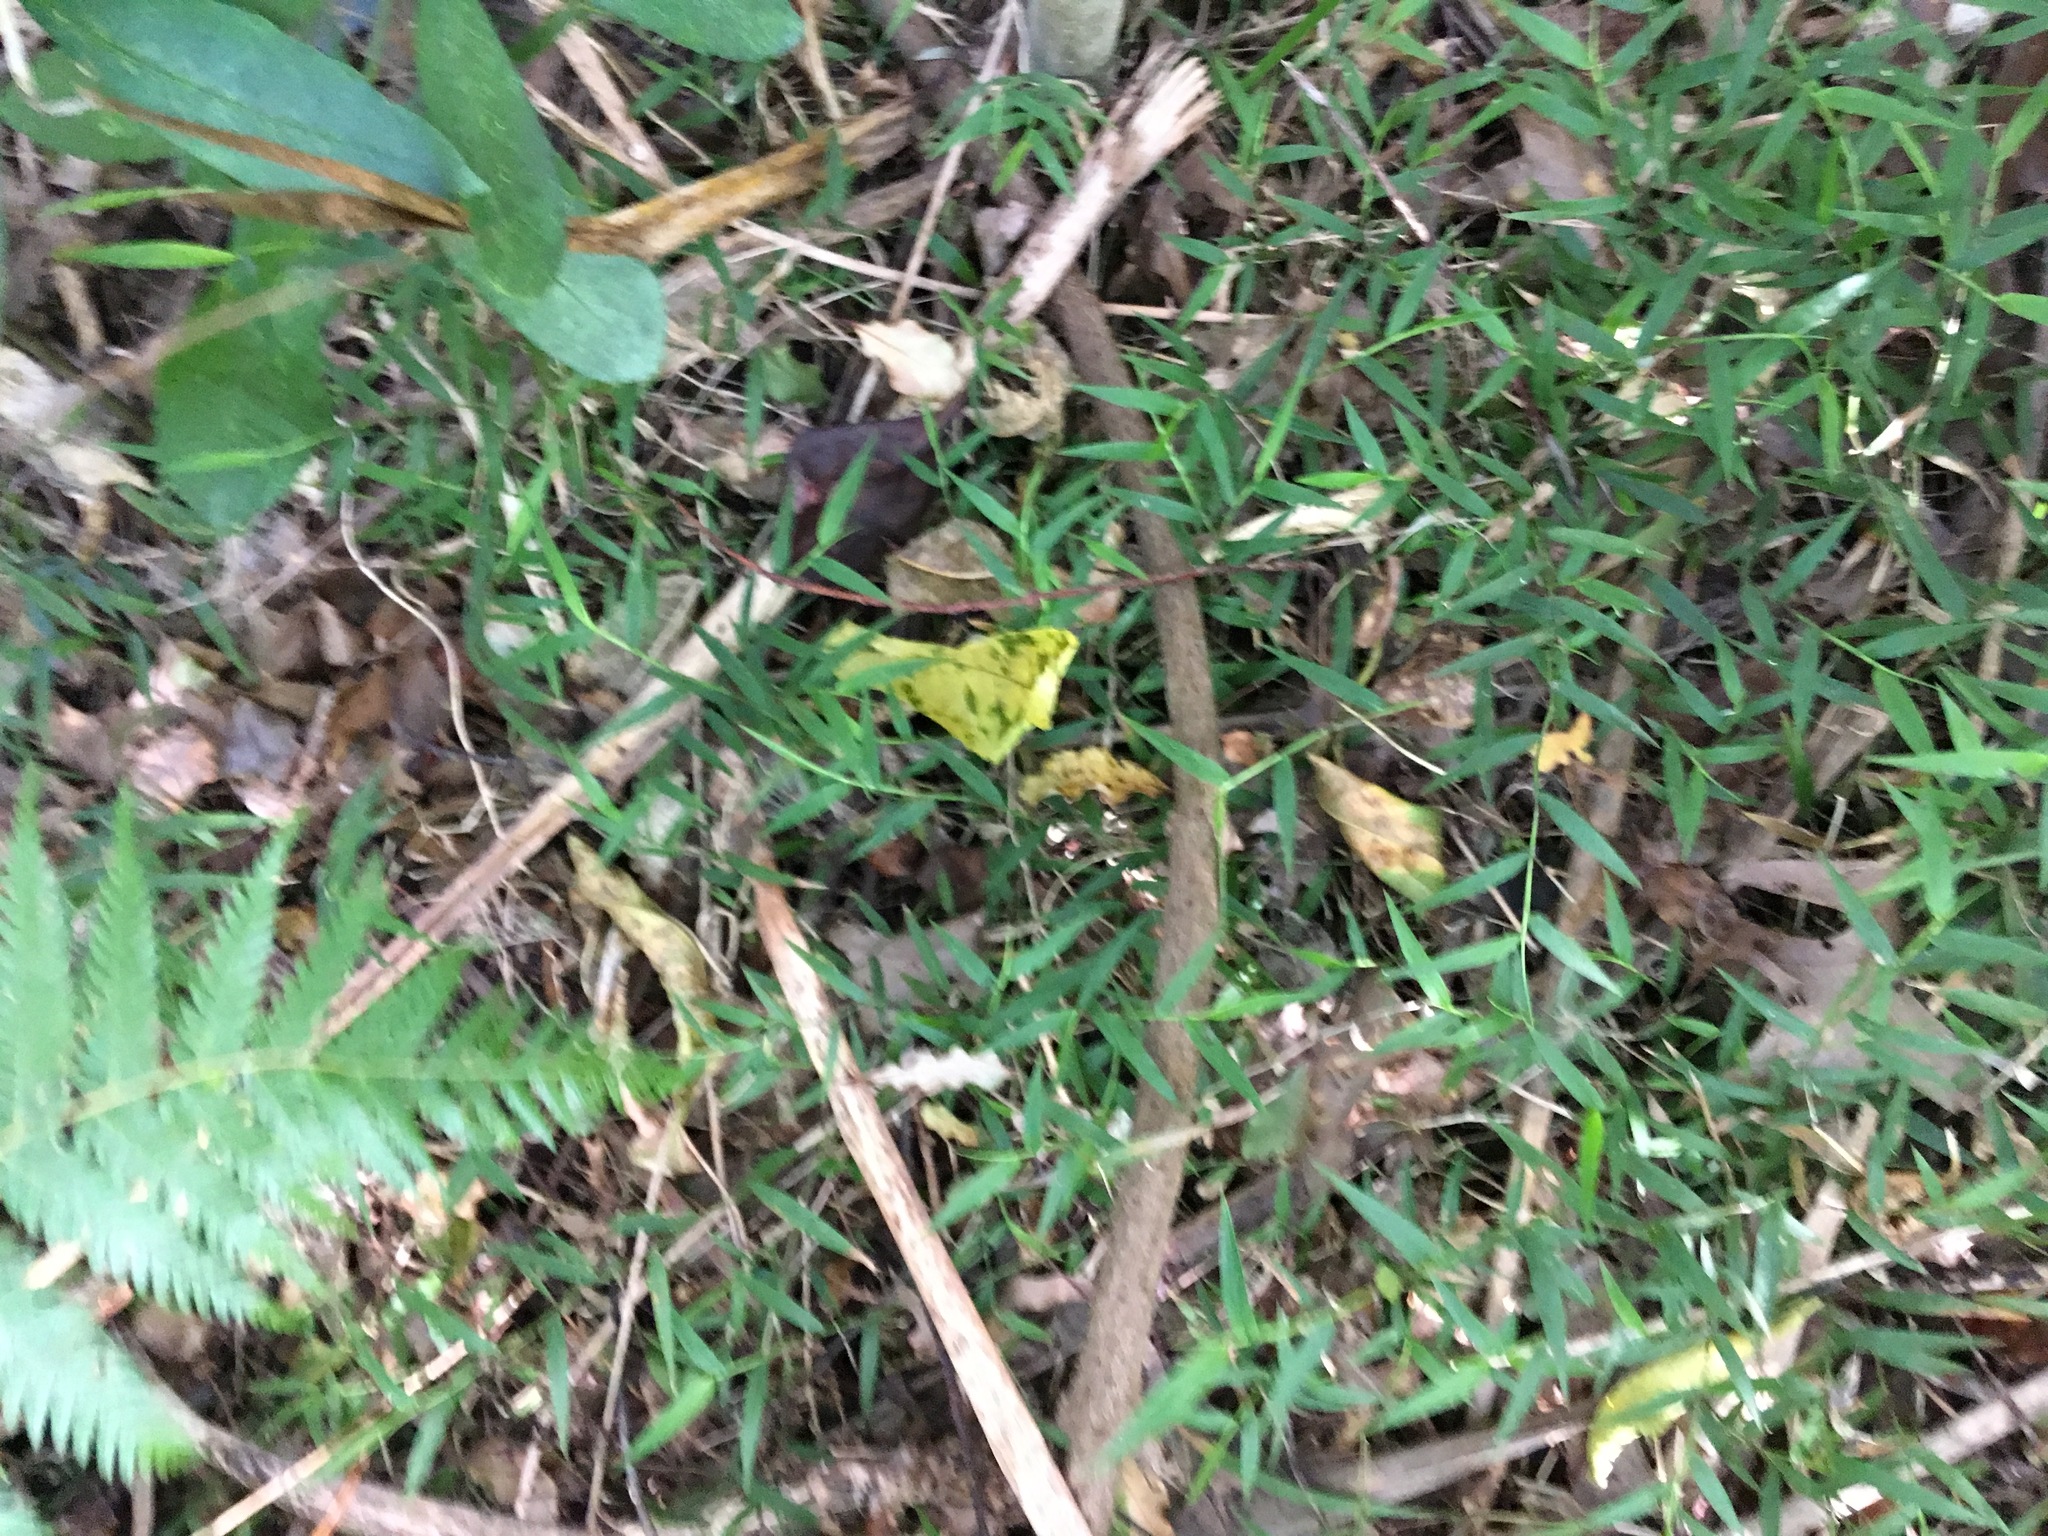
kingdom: Plantae
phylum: Tracheophyta
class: Liliopsida
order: Poales
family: Poaceae
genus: Oplismenus
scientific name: Oplismenus hirtellus
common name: Basketgrass
